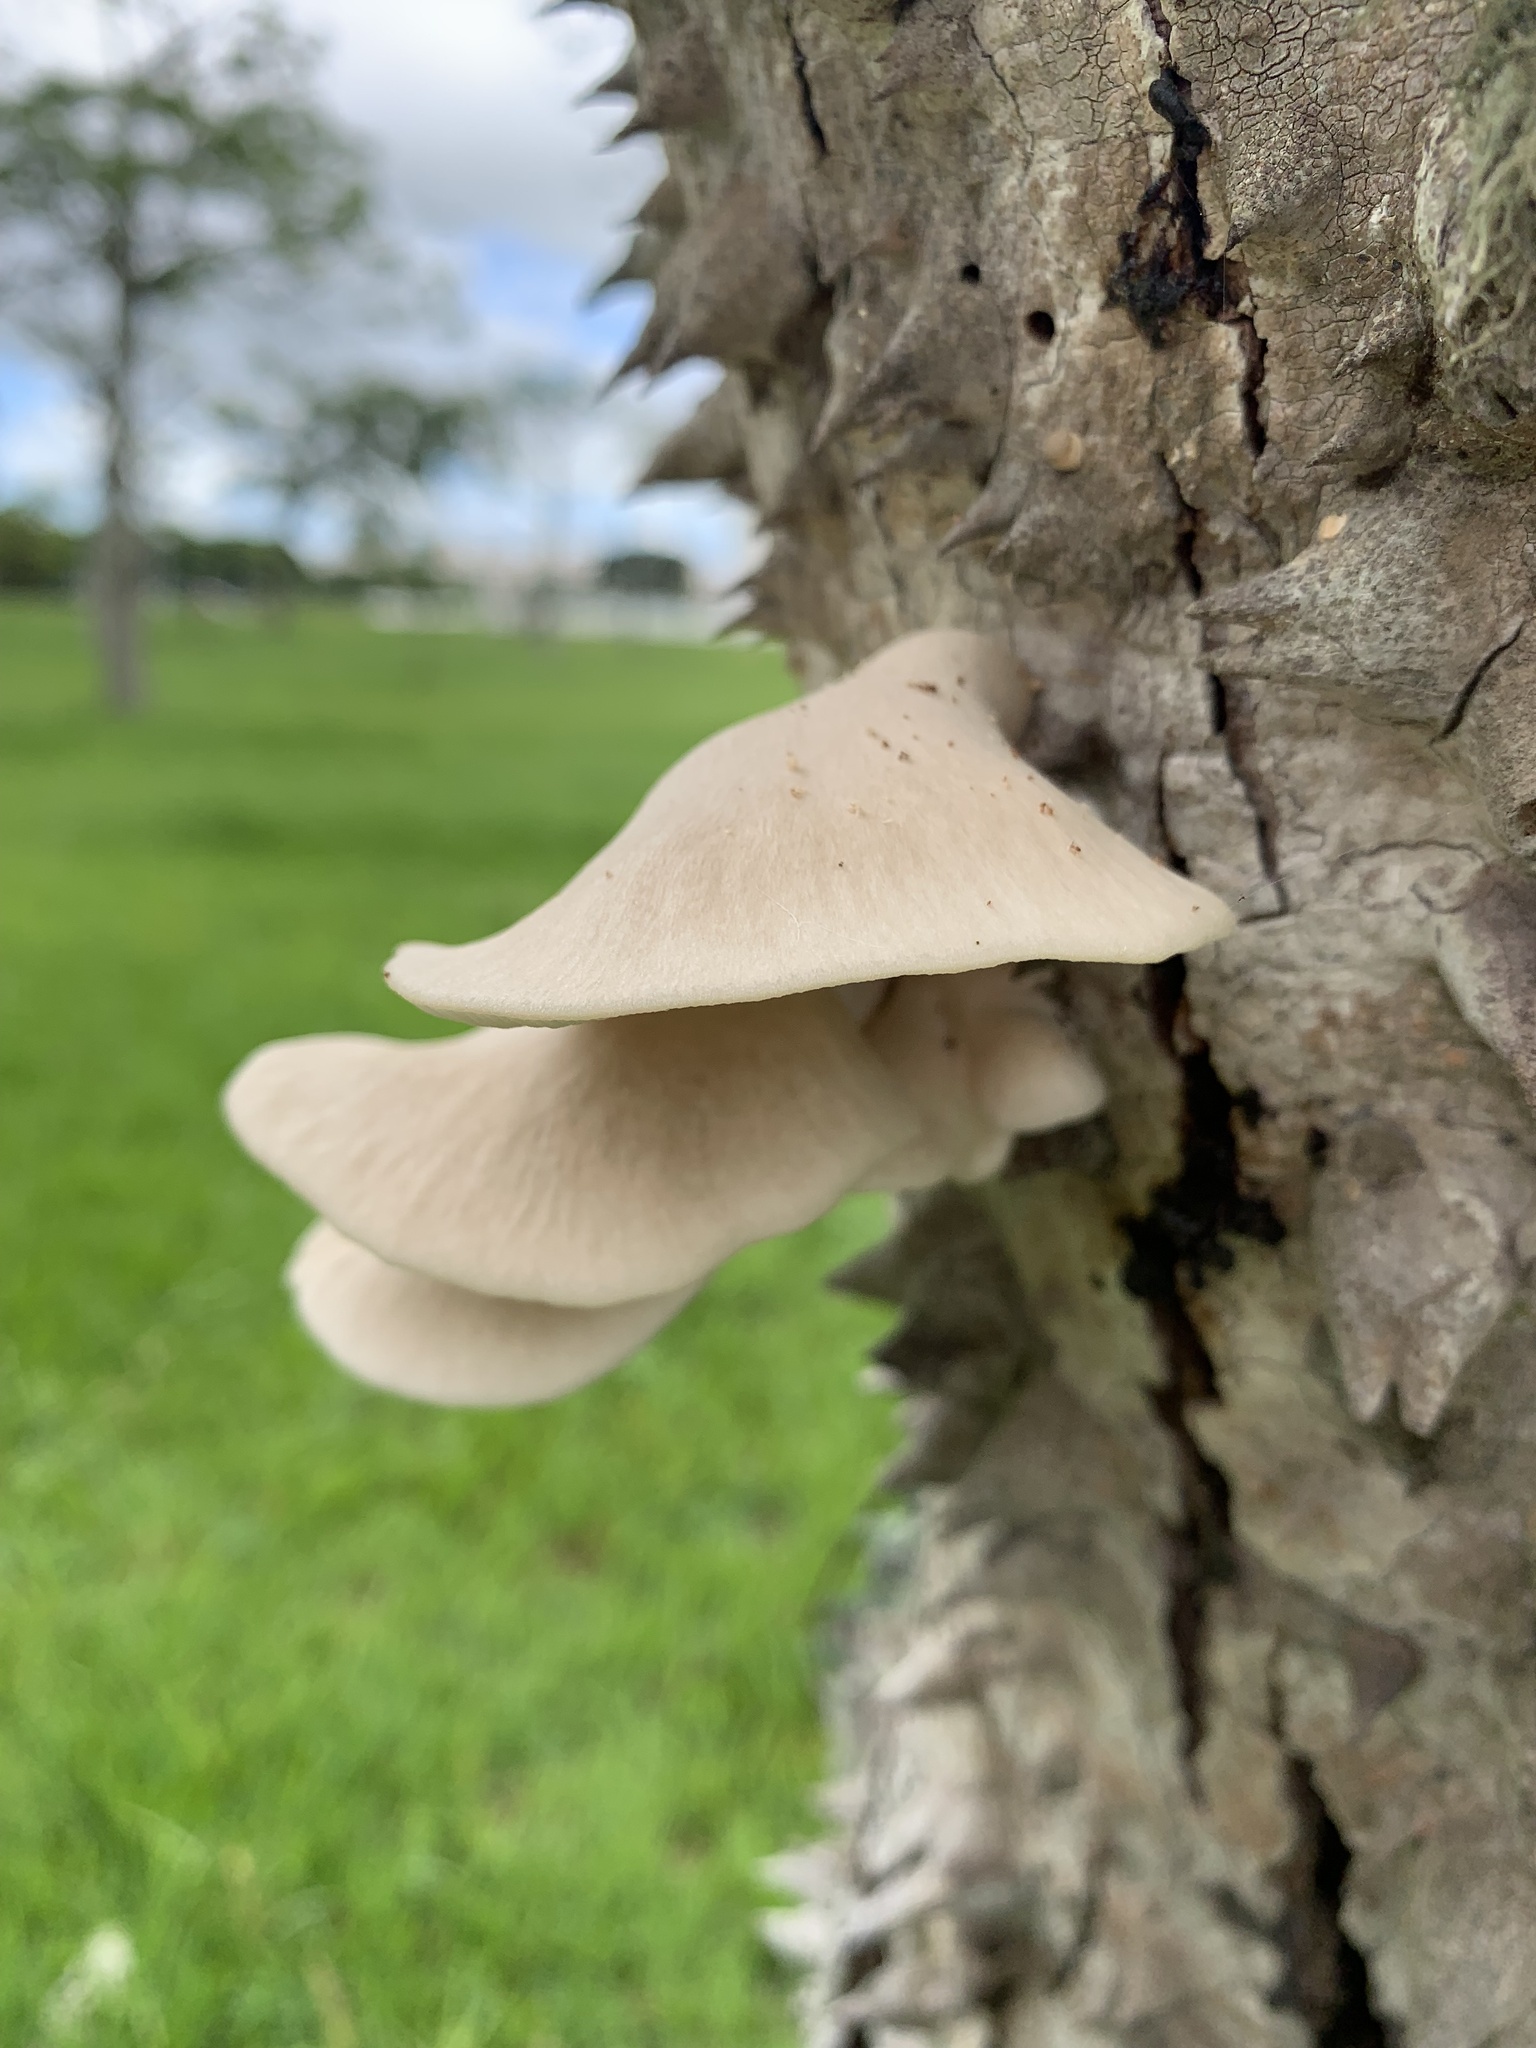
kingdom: Fungi
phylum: Basidiomycota
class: Agaricomycetes
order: Agaricales
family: Pleurotaceae
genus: Pleurotus
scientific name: Pleurotus djamor
